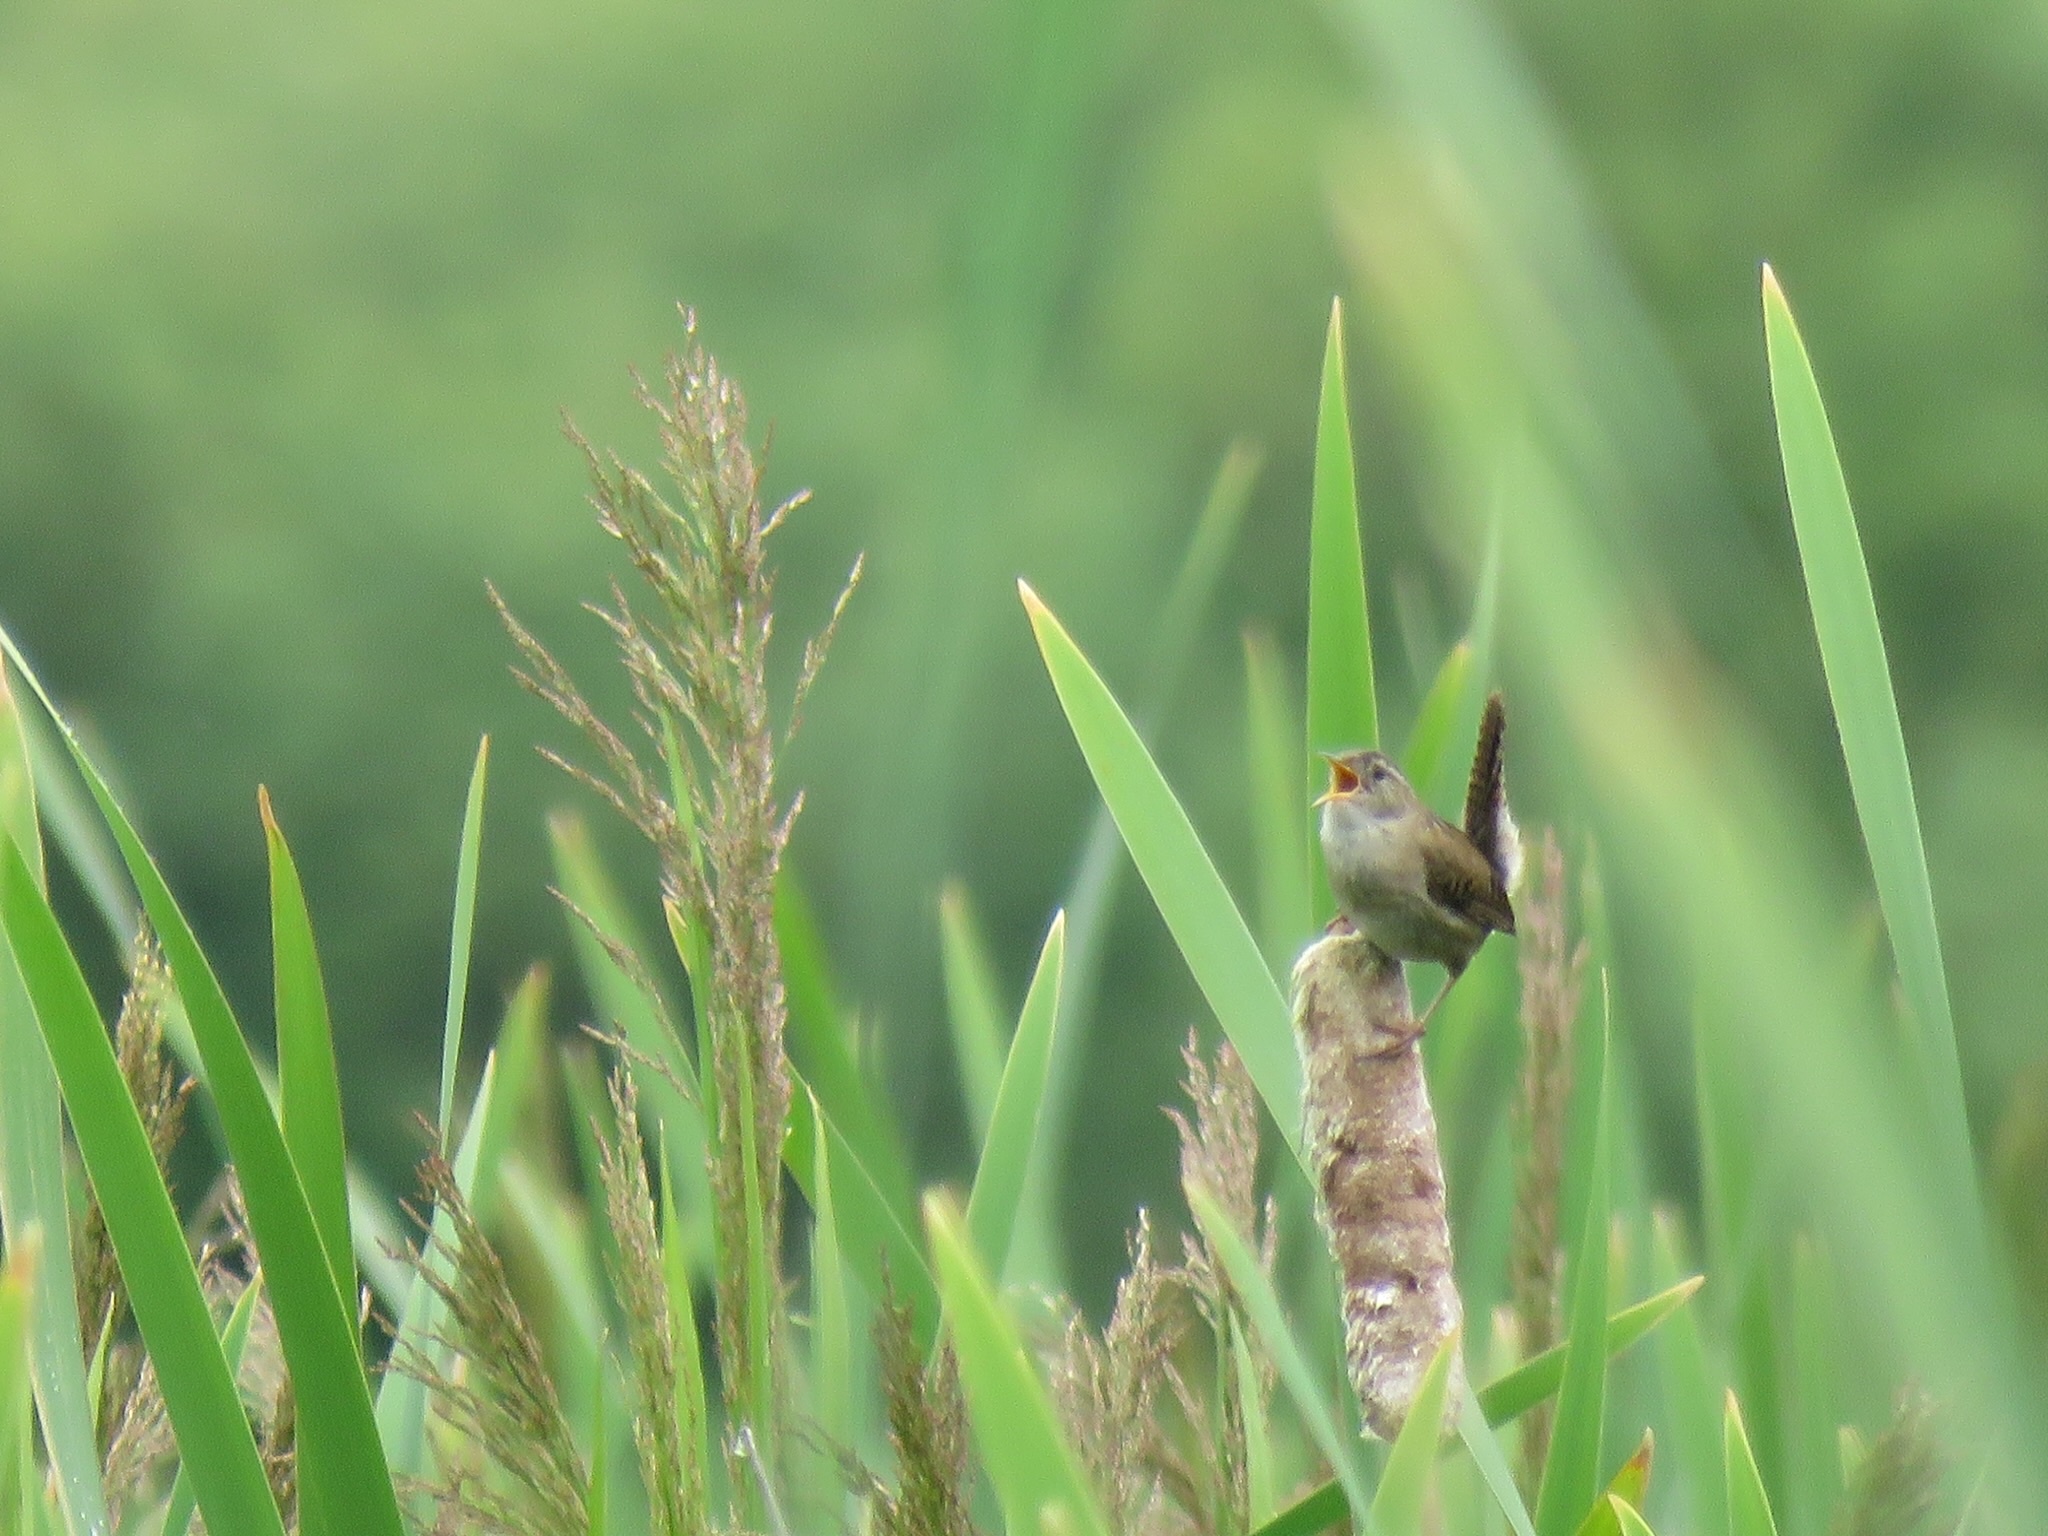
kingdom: Animalia
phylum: Chordata
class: Aves
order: Passeriformes
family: Troglodytidae
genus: Cistothorus
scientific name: Cistothorus palustris
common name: Marsh wren
